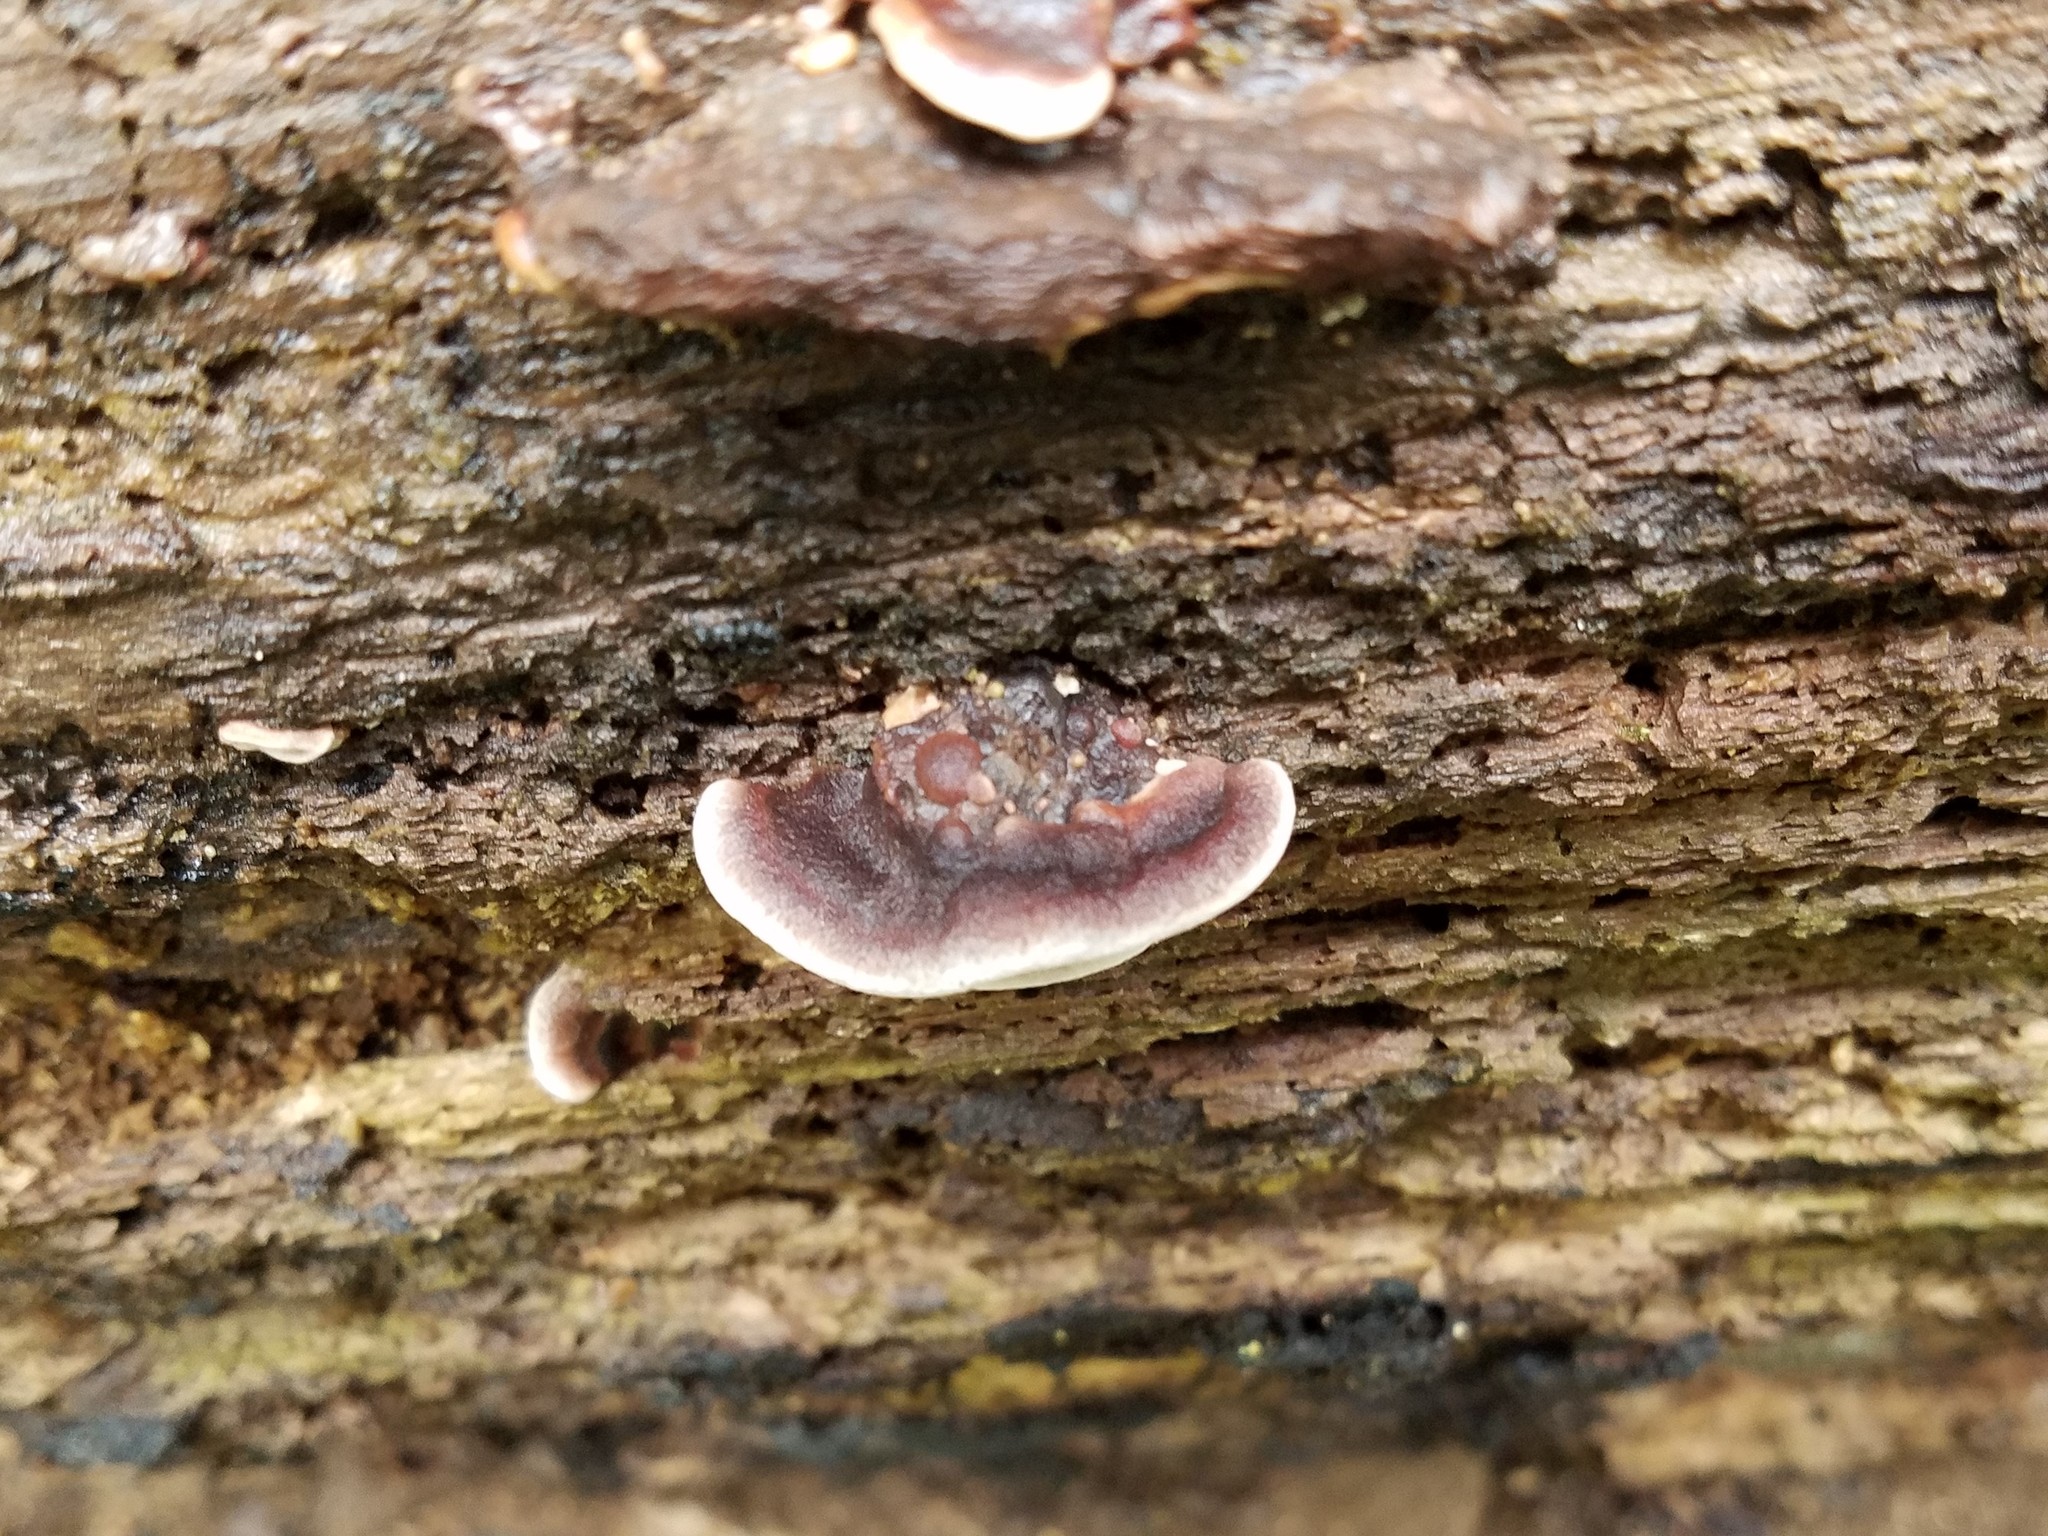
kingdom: Fungi
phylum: Basidiomycota
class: Agaricomycetes
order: Polyporales
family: Steccherinaceae
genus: Nigroporus
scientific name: Nigroporus vinosus
